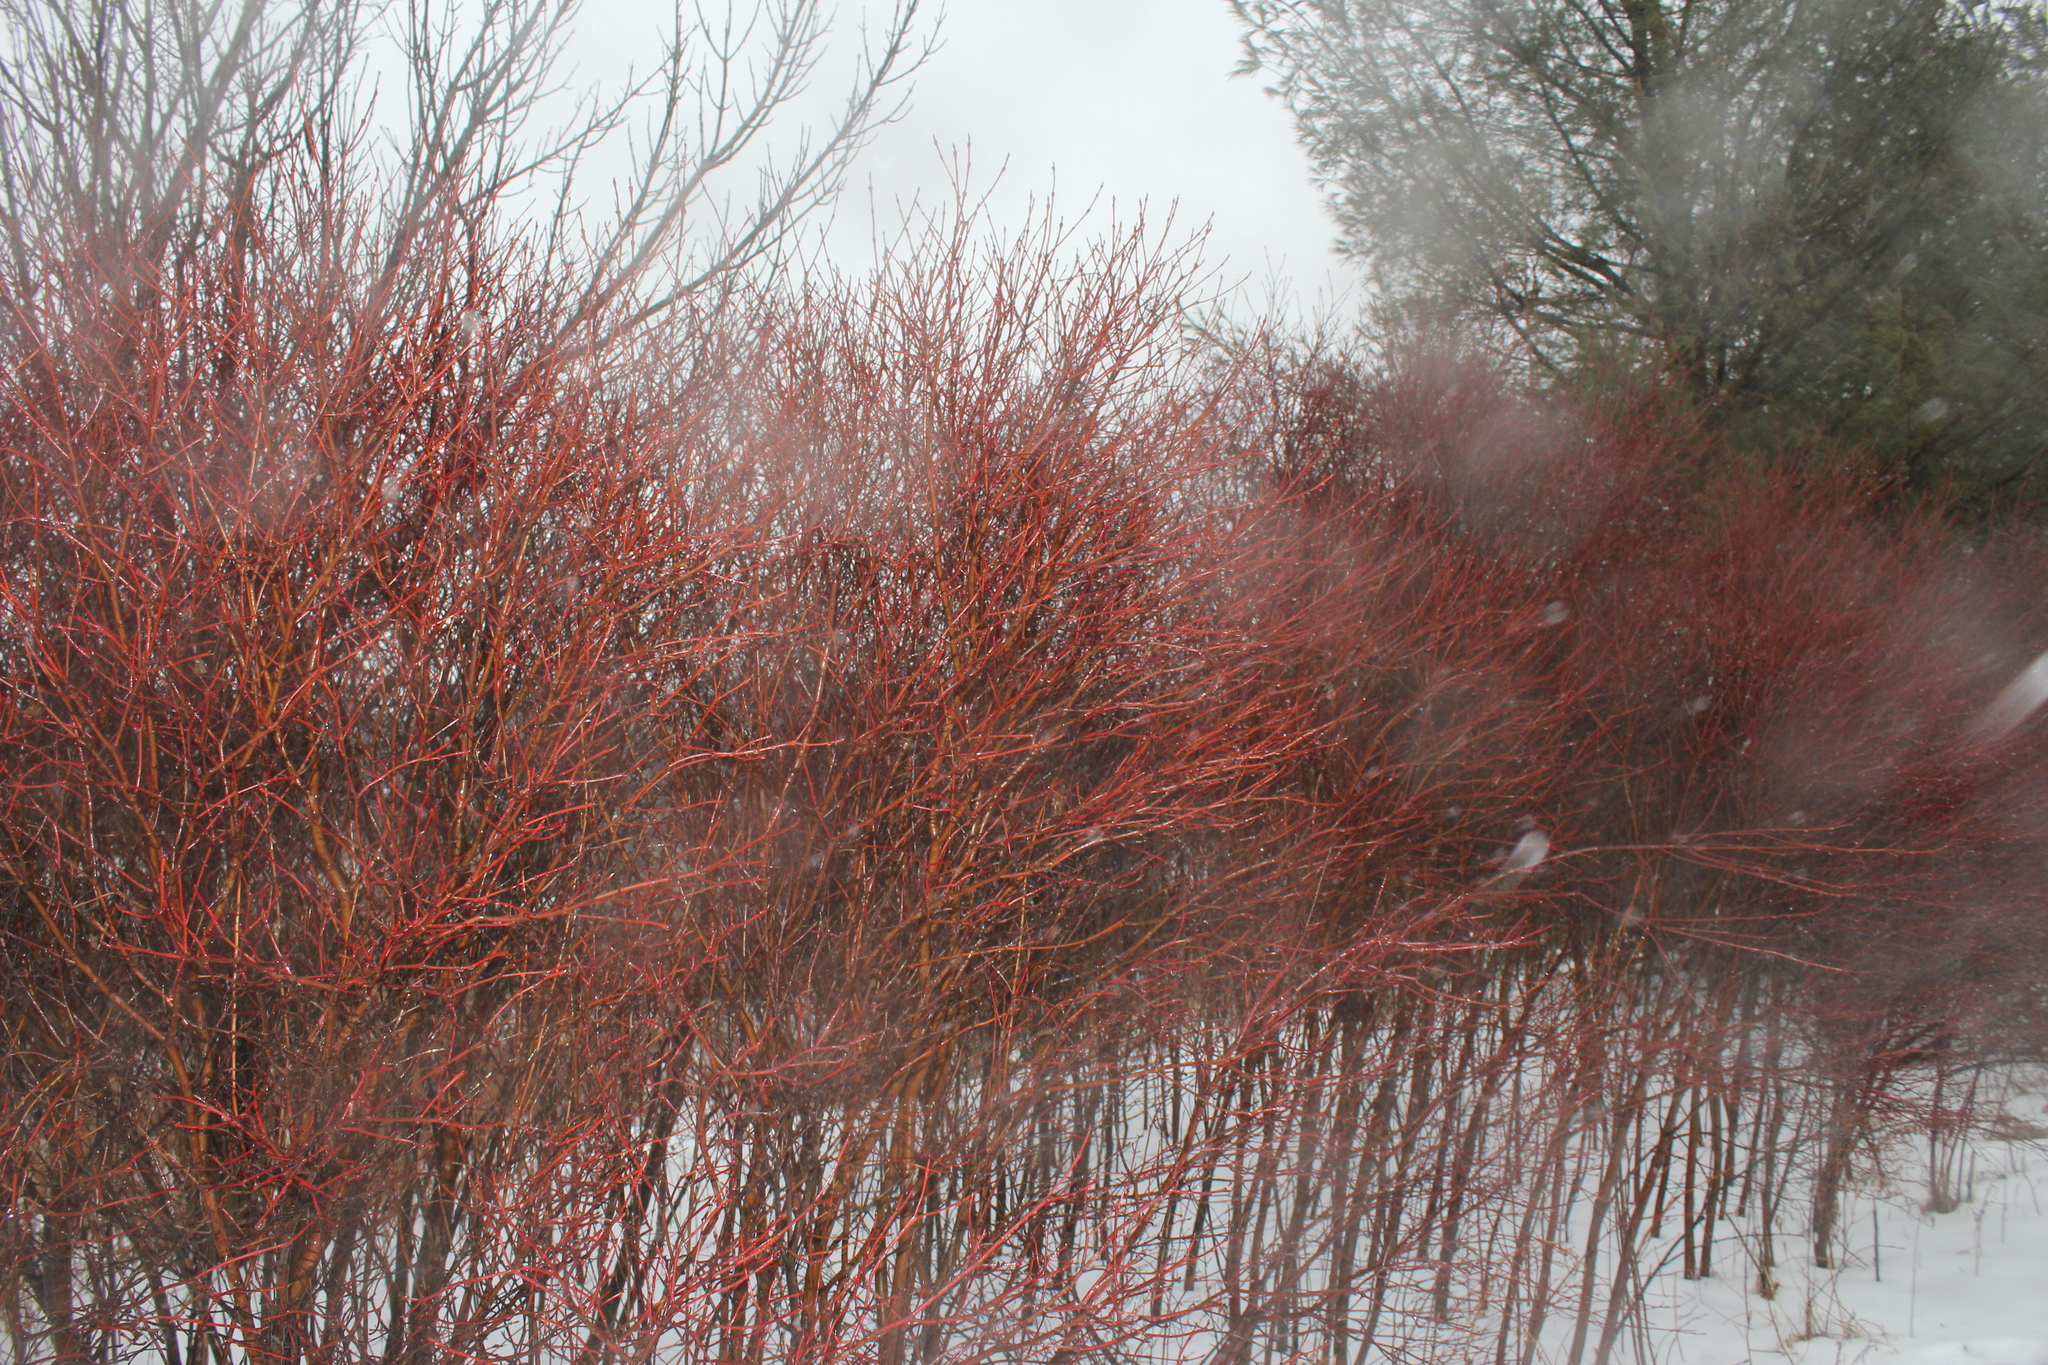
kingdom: Plantae
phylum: Tracheophyta
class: Magnoliopsida
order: Cornales
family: Cornaceae
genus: Cornus
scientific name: Cornus amomum
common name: Silky dogwood
